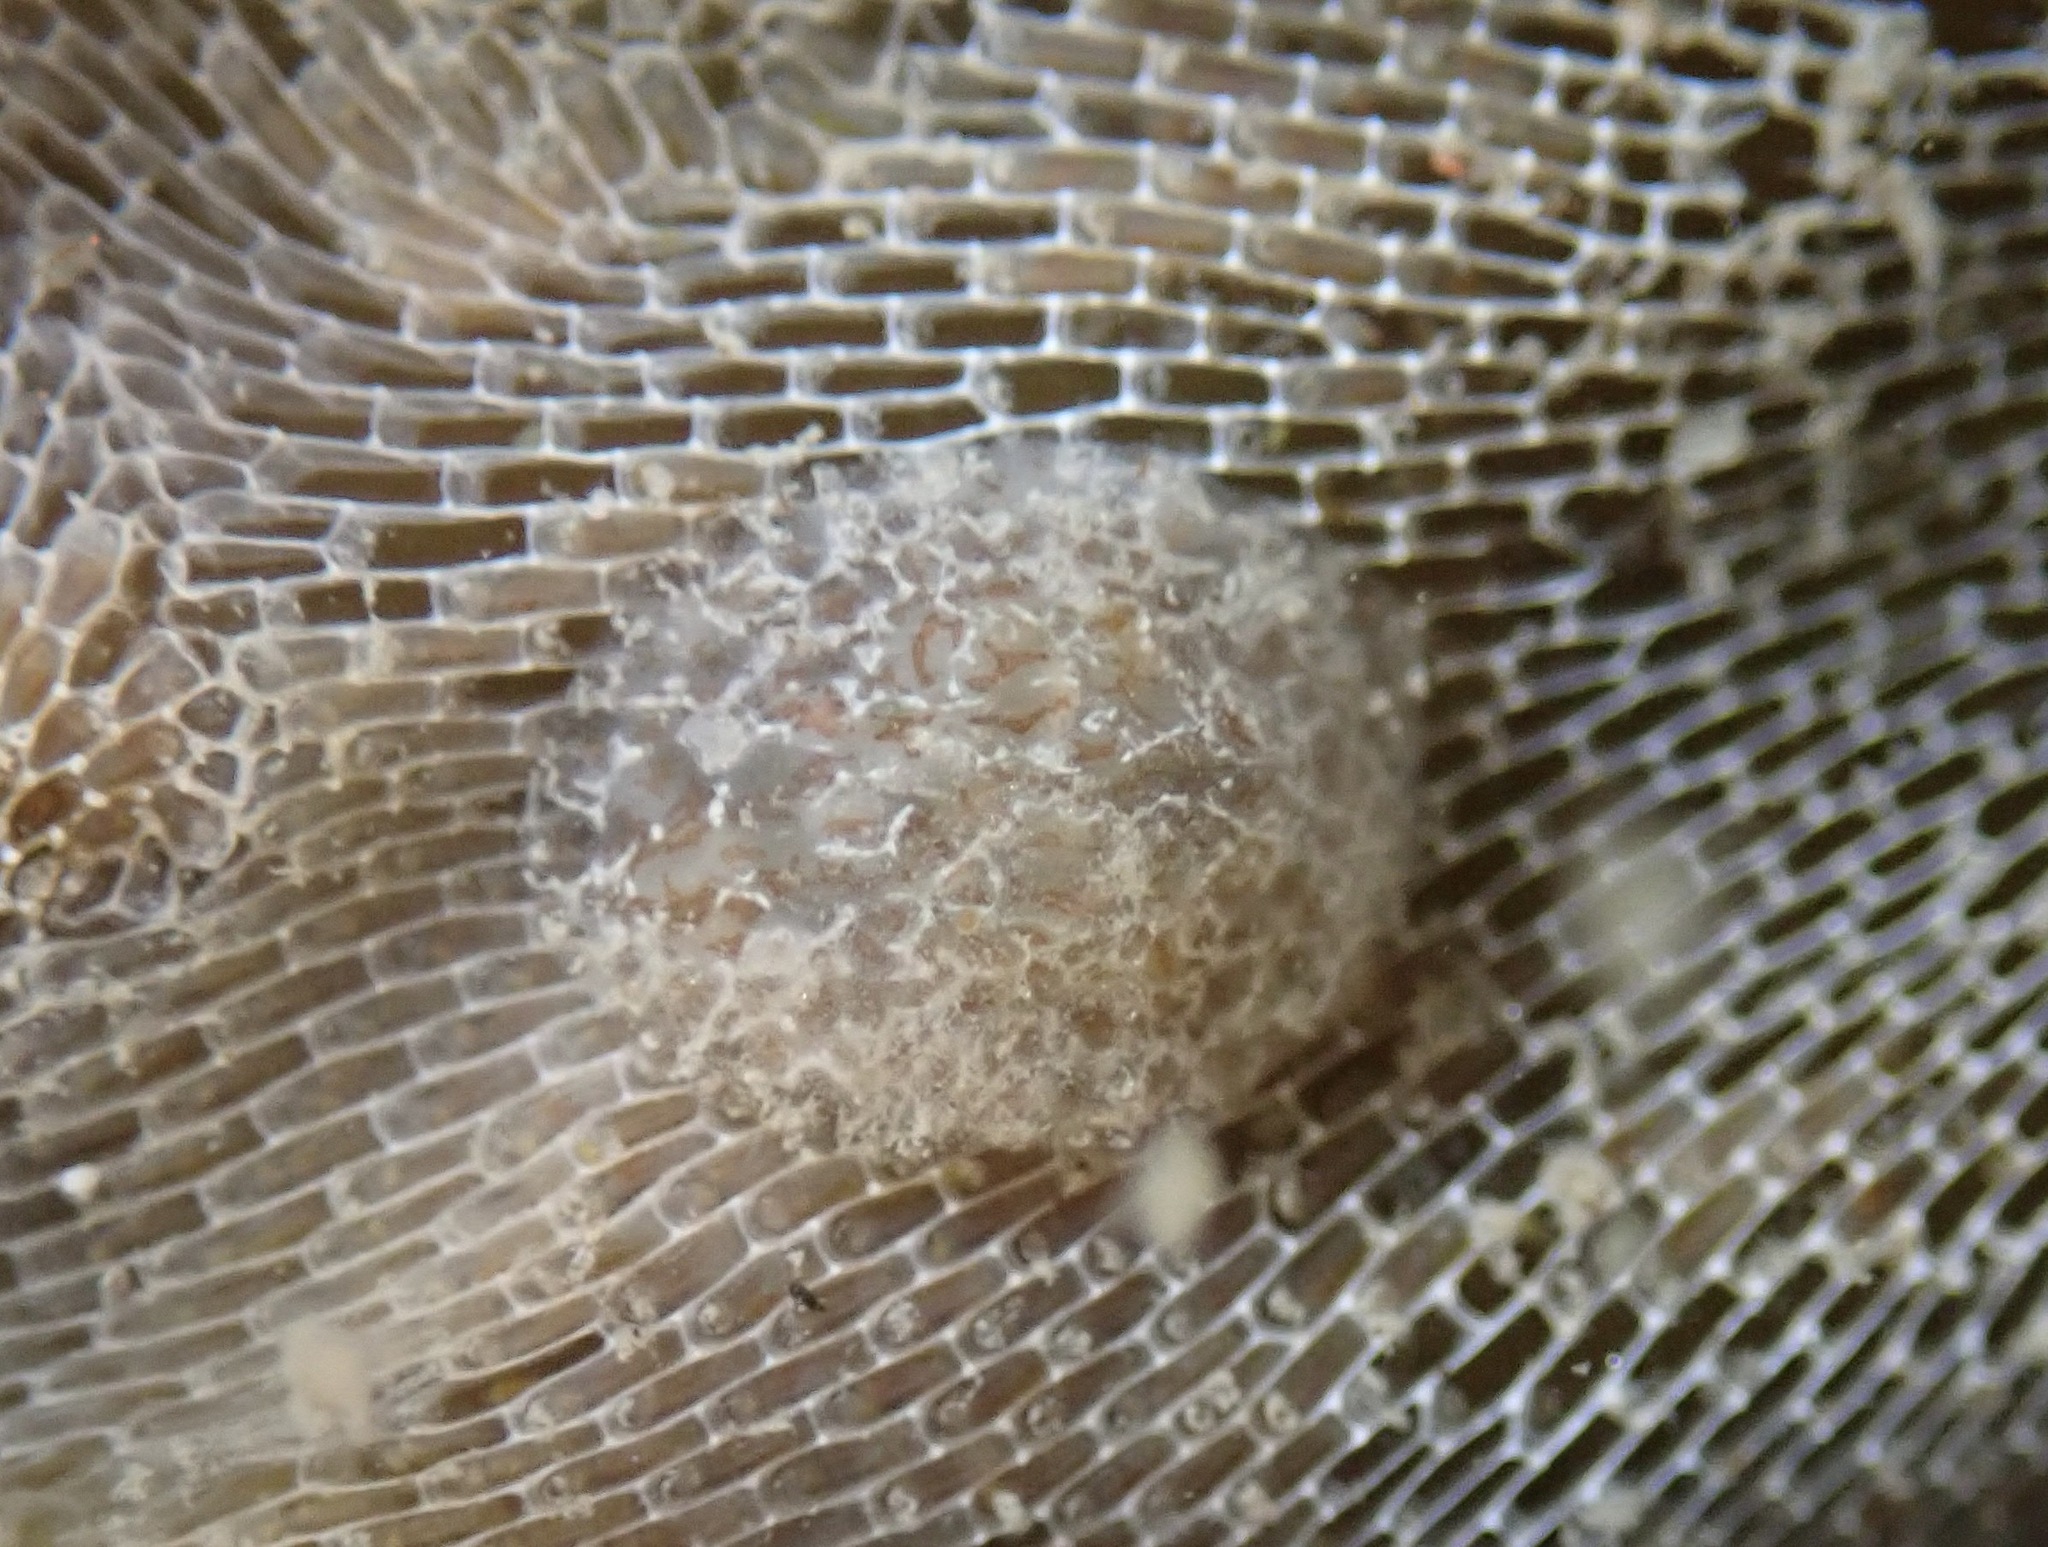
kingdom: Animalia
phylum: Mollusca
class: Gastropoda
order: Nudibranchia
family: Corambidae
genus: Corambe
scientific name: Corambe steinbergae
